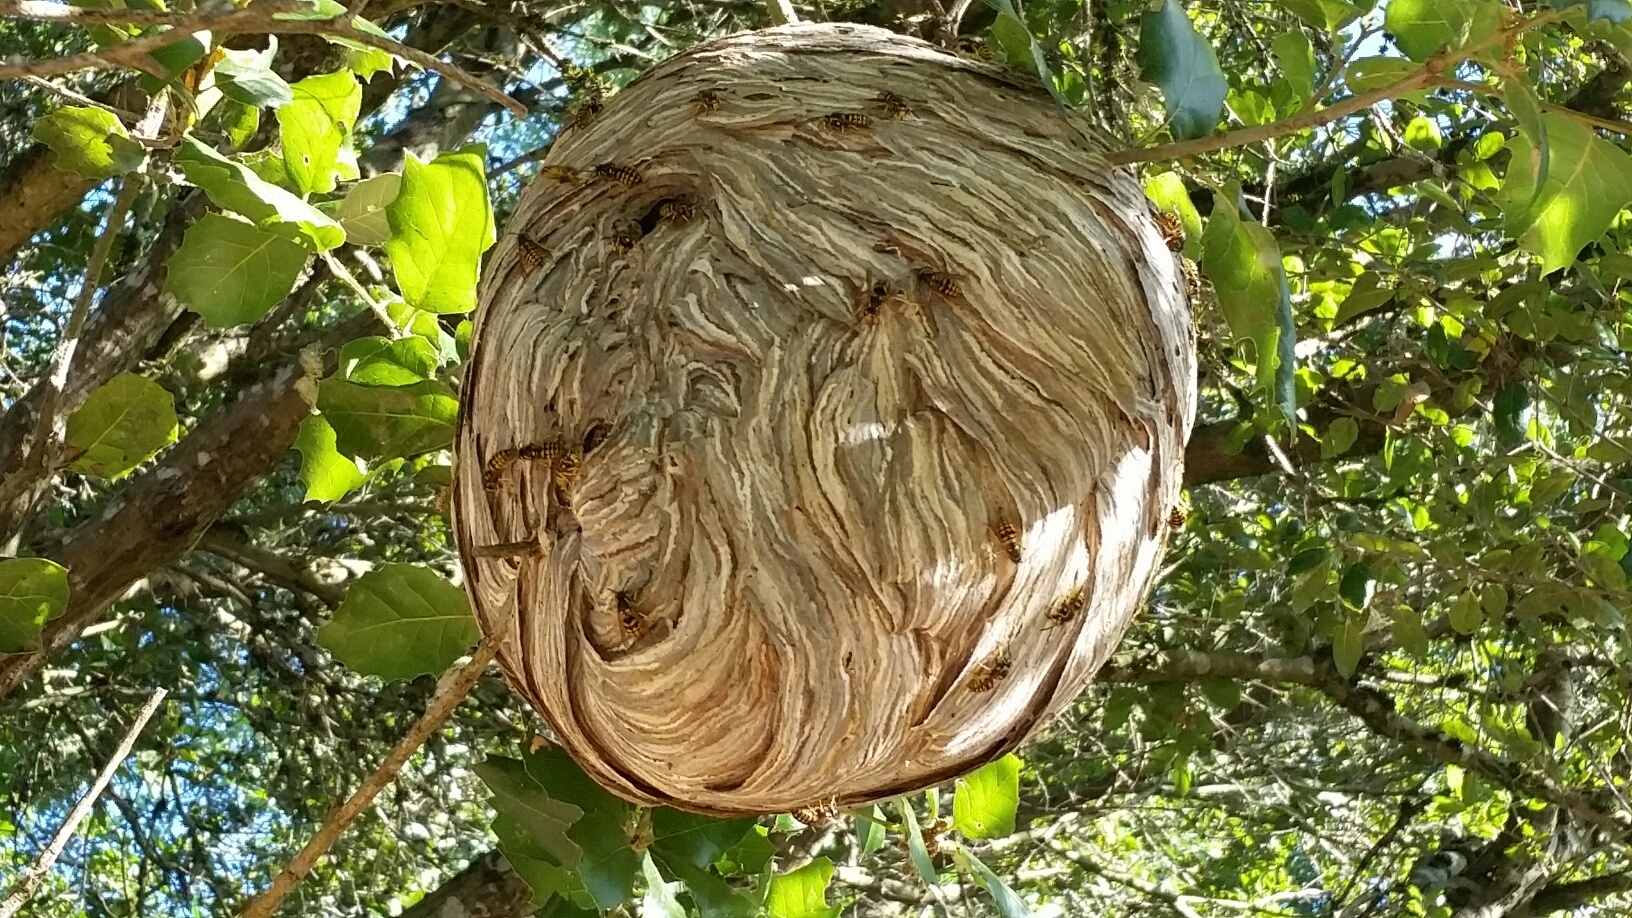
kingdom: Animalia
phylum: Arthropoda
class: Insecta
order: Hymenoptera
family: Vespidae
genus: Dolichovespula
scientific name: Dolichovespula arenaria
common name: Aerial yellowjacket
